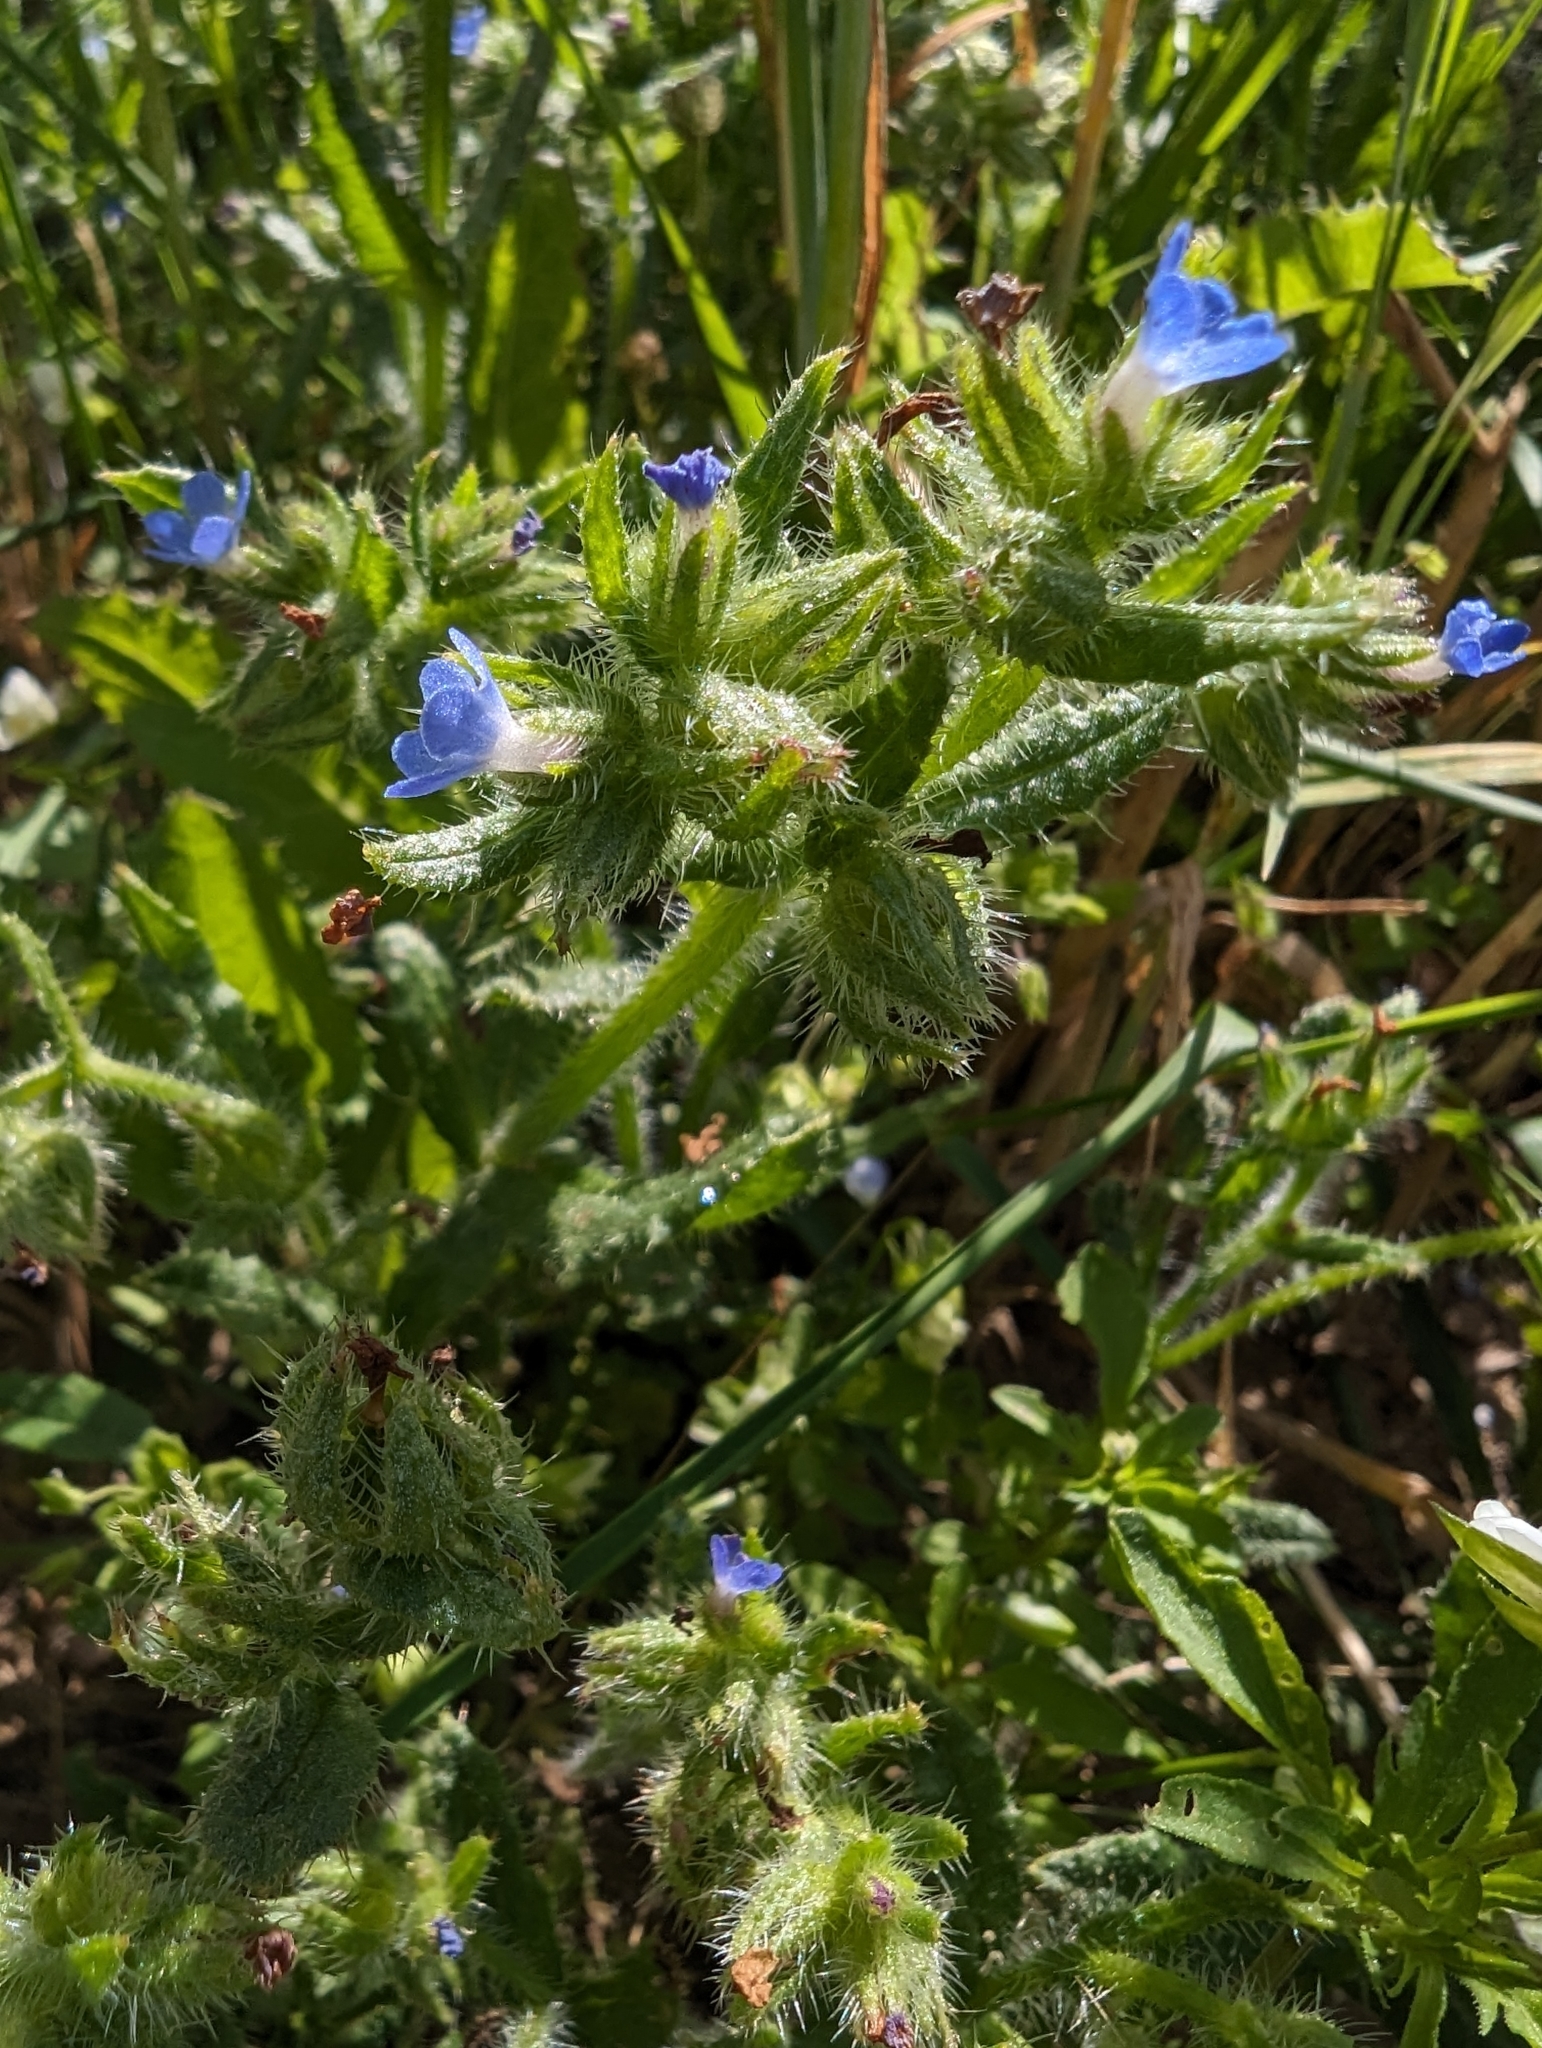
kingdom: Plantae
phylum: Tracheophyta
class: Magnoliopsida
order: Boraginales
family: Boraginaceae
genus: Lycopsis
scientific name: Lycopsis arvensis
